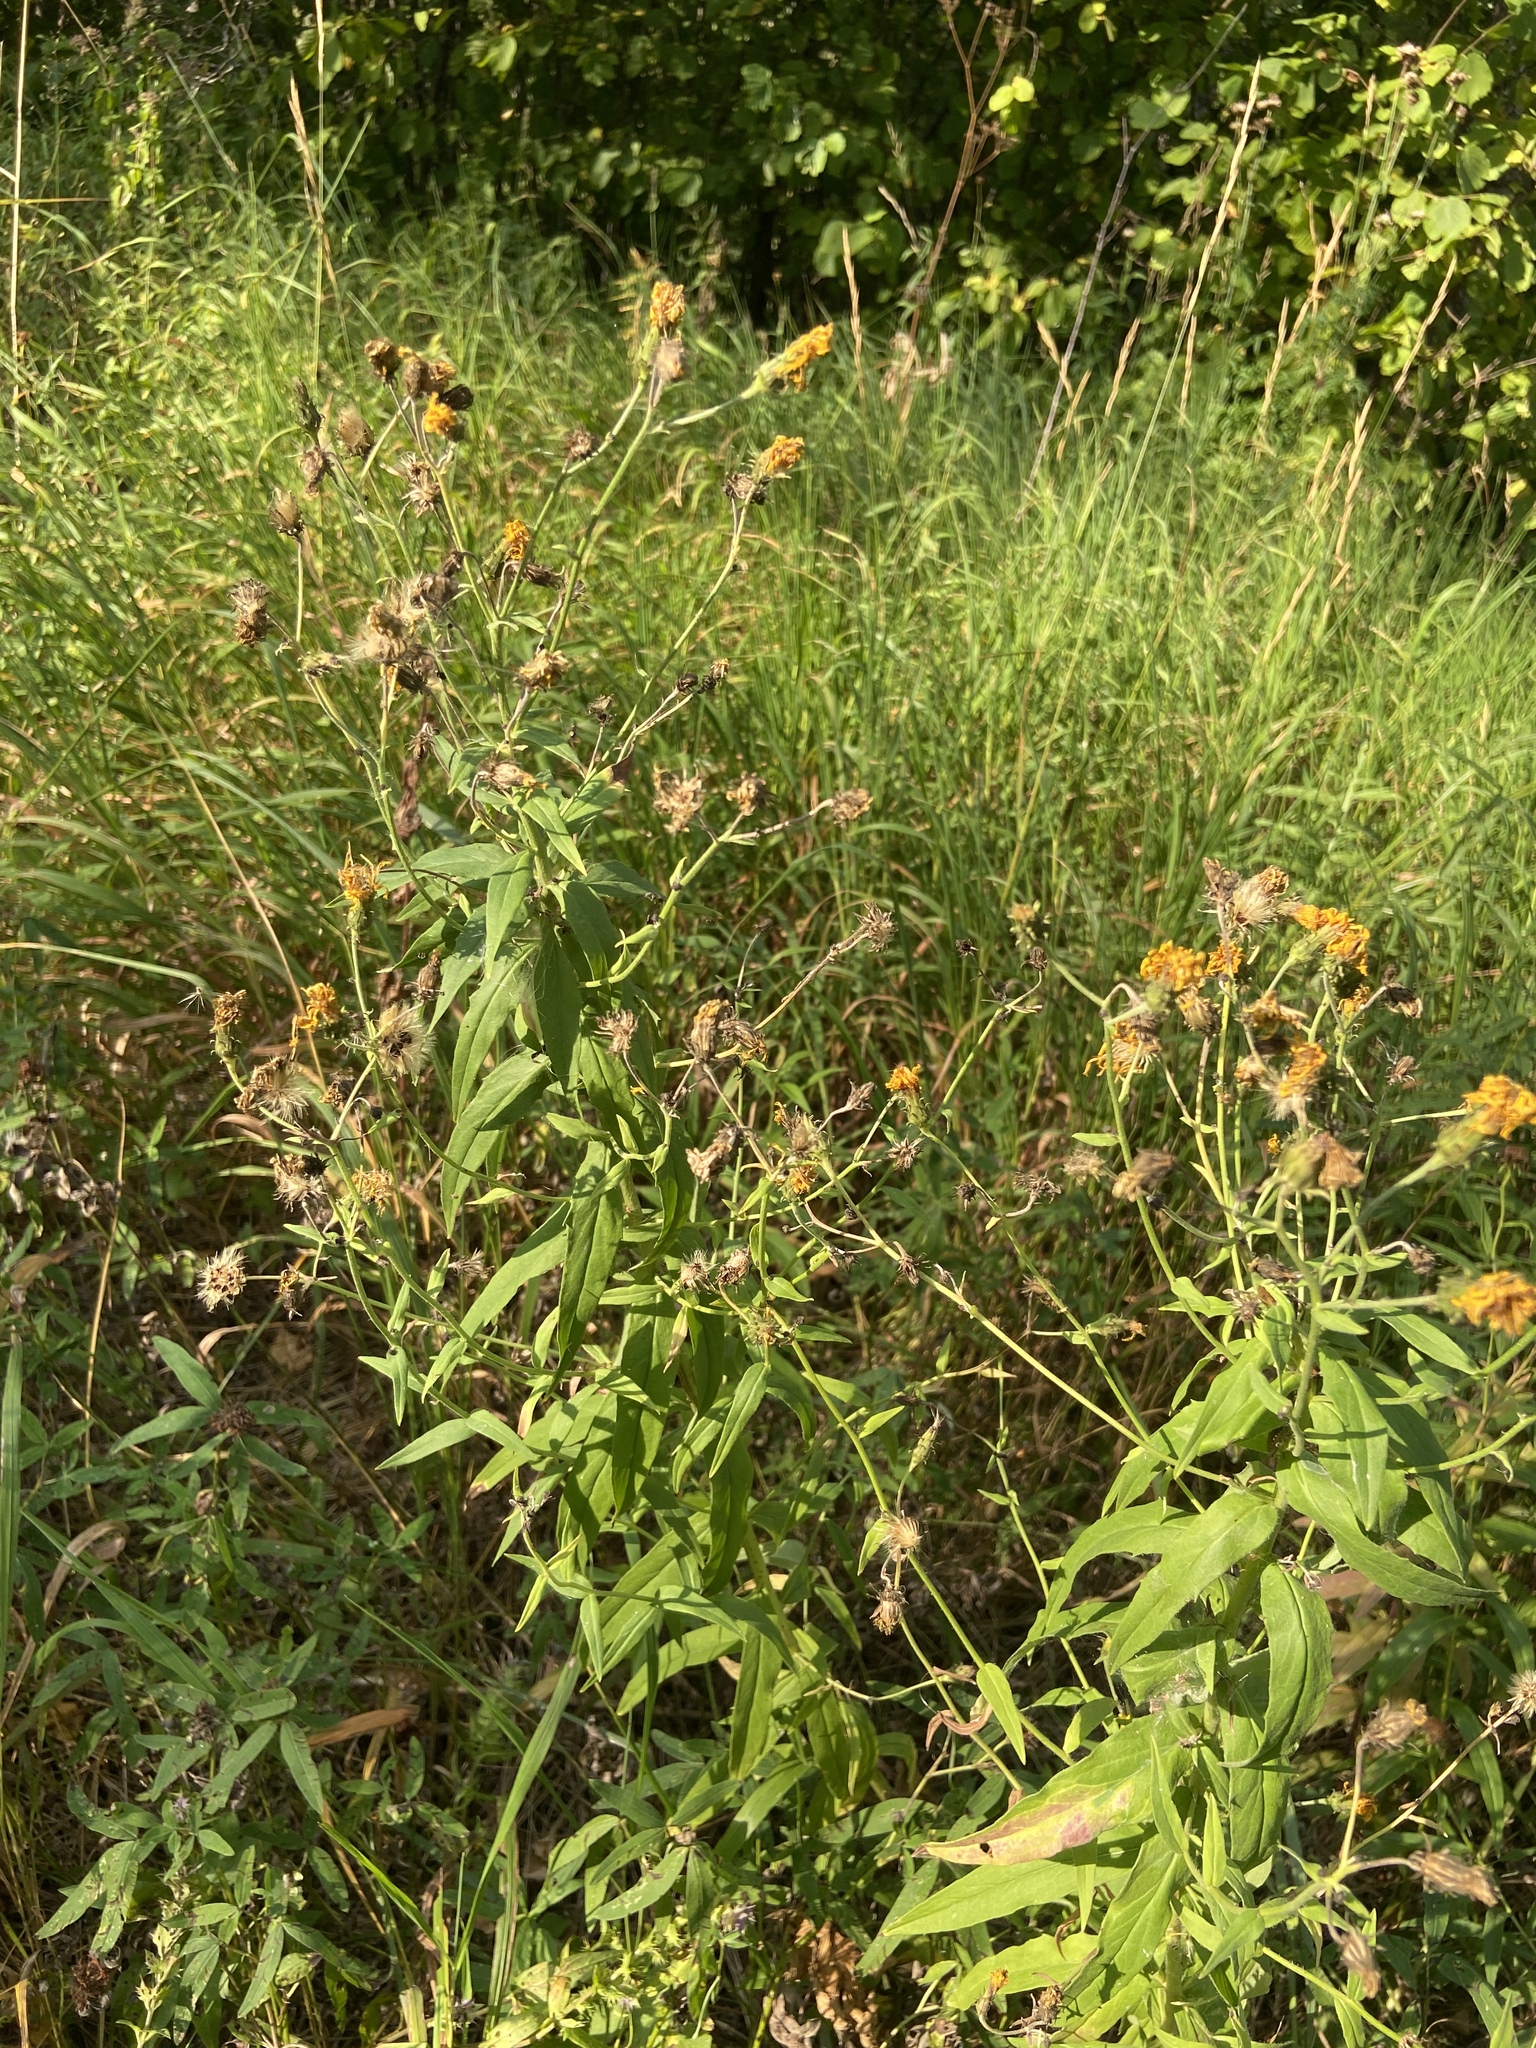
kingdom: Plantae
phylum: Tracheophyta
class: Magnoliopsida
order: Asterales
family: Asteraceae
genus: Hieracium
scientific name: Hieracium umbellatum
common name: Northern hawkweed
